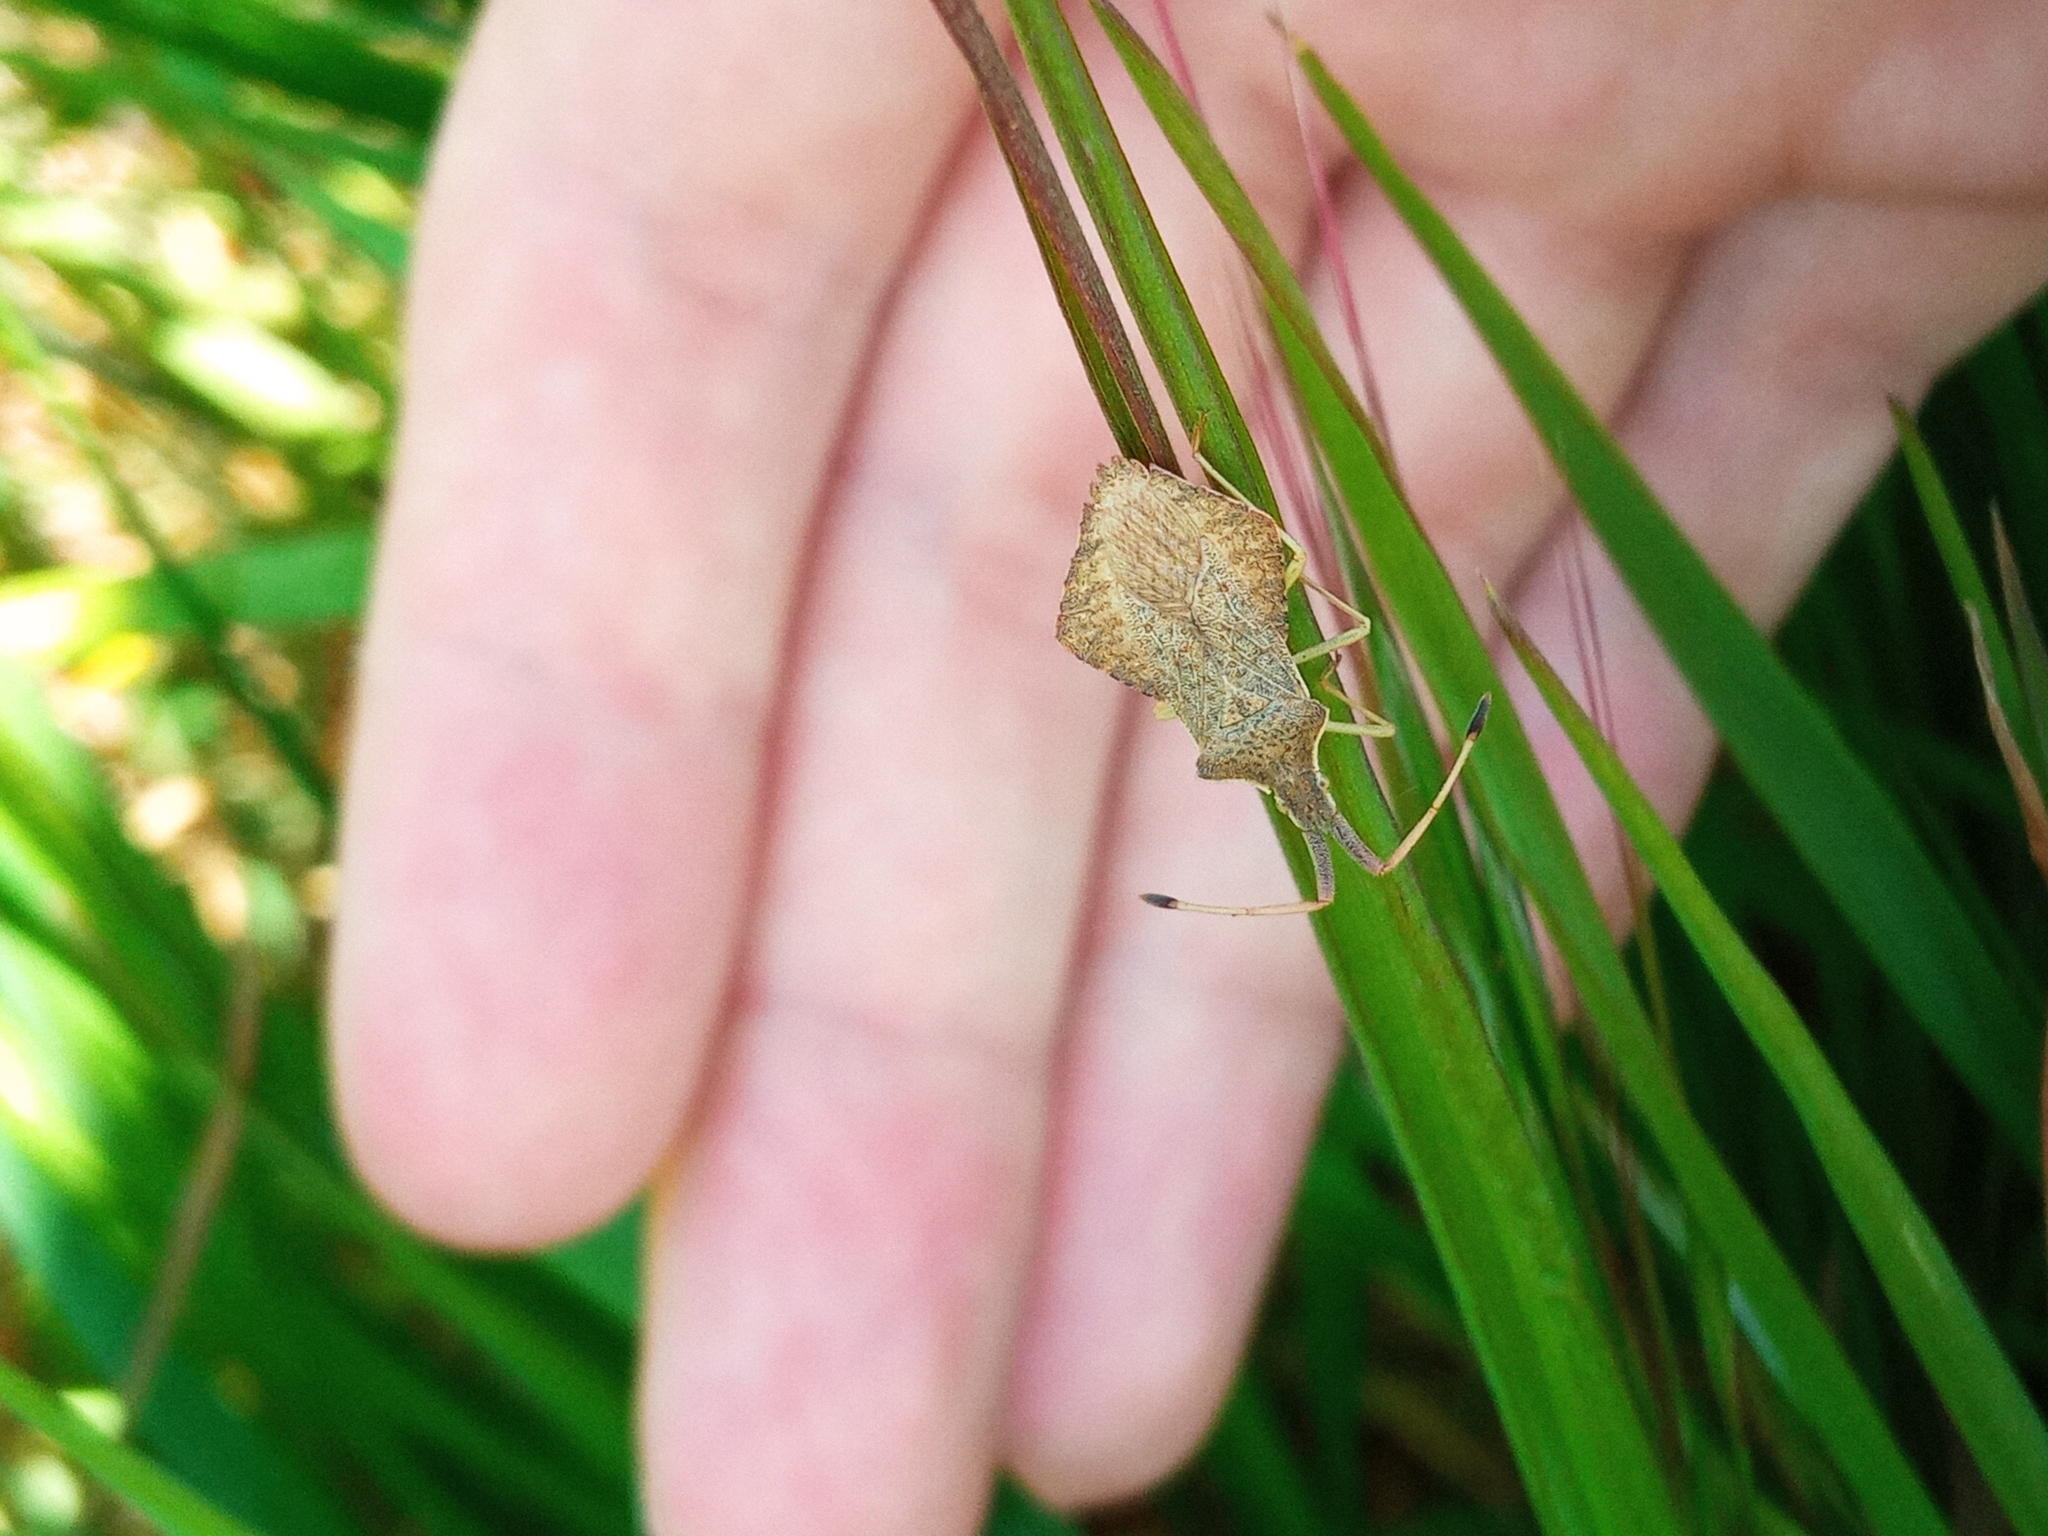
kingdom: Animalia
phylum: Arthropoda
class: Insecta
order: Hemiptera
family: Coreidae
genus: Syromastus
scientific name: Syromastus rhombeus
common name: Rhombic leatherbug
